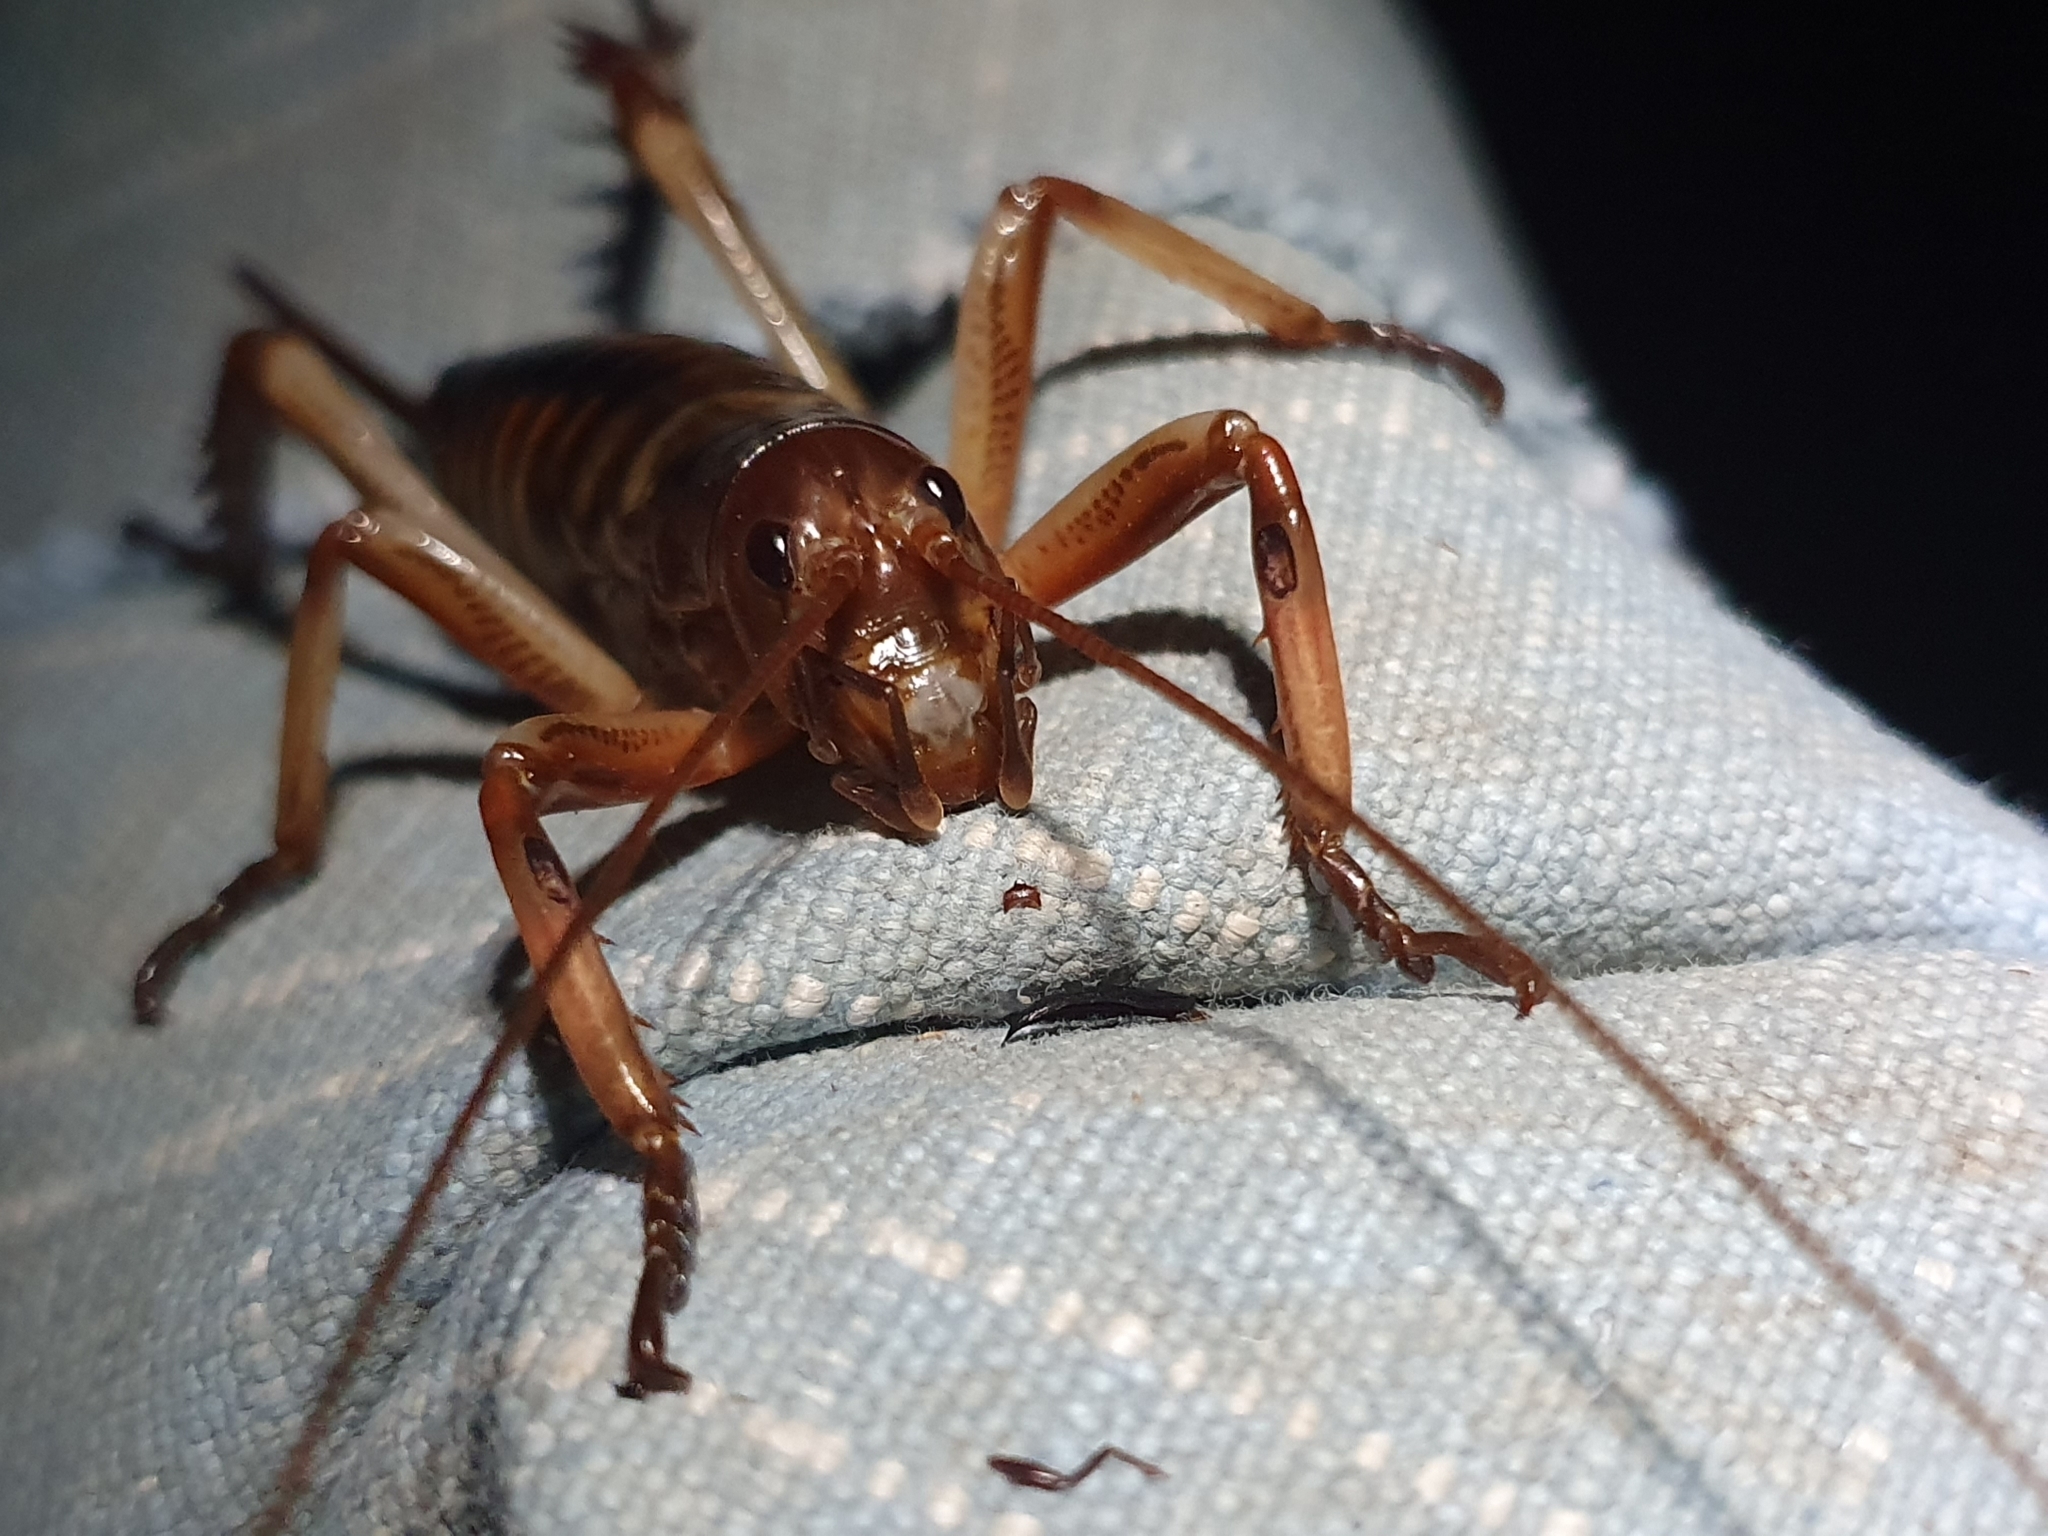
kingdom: Animalia
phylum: Arthropoda
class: Insecta
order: Orthoptera
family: Anostostomatidae
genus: Hemideina
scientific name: Hemideina crassidens
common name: Wellington tree weta
